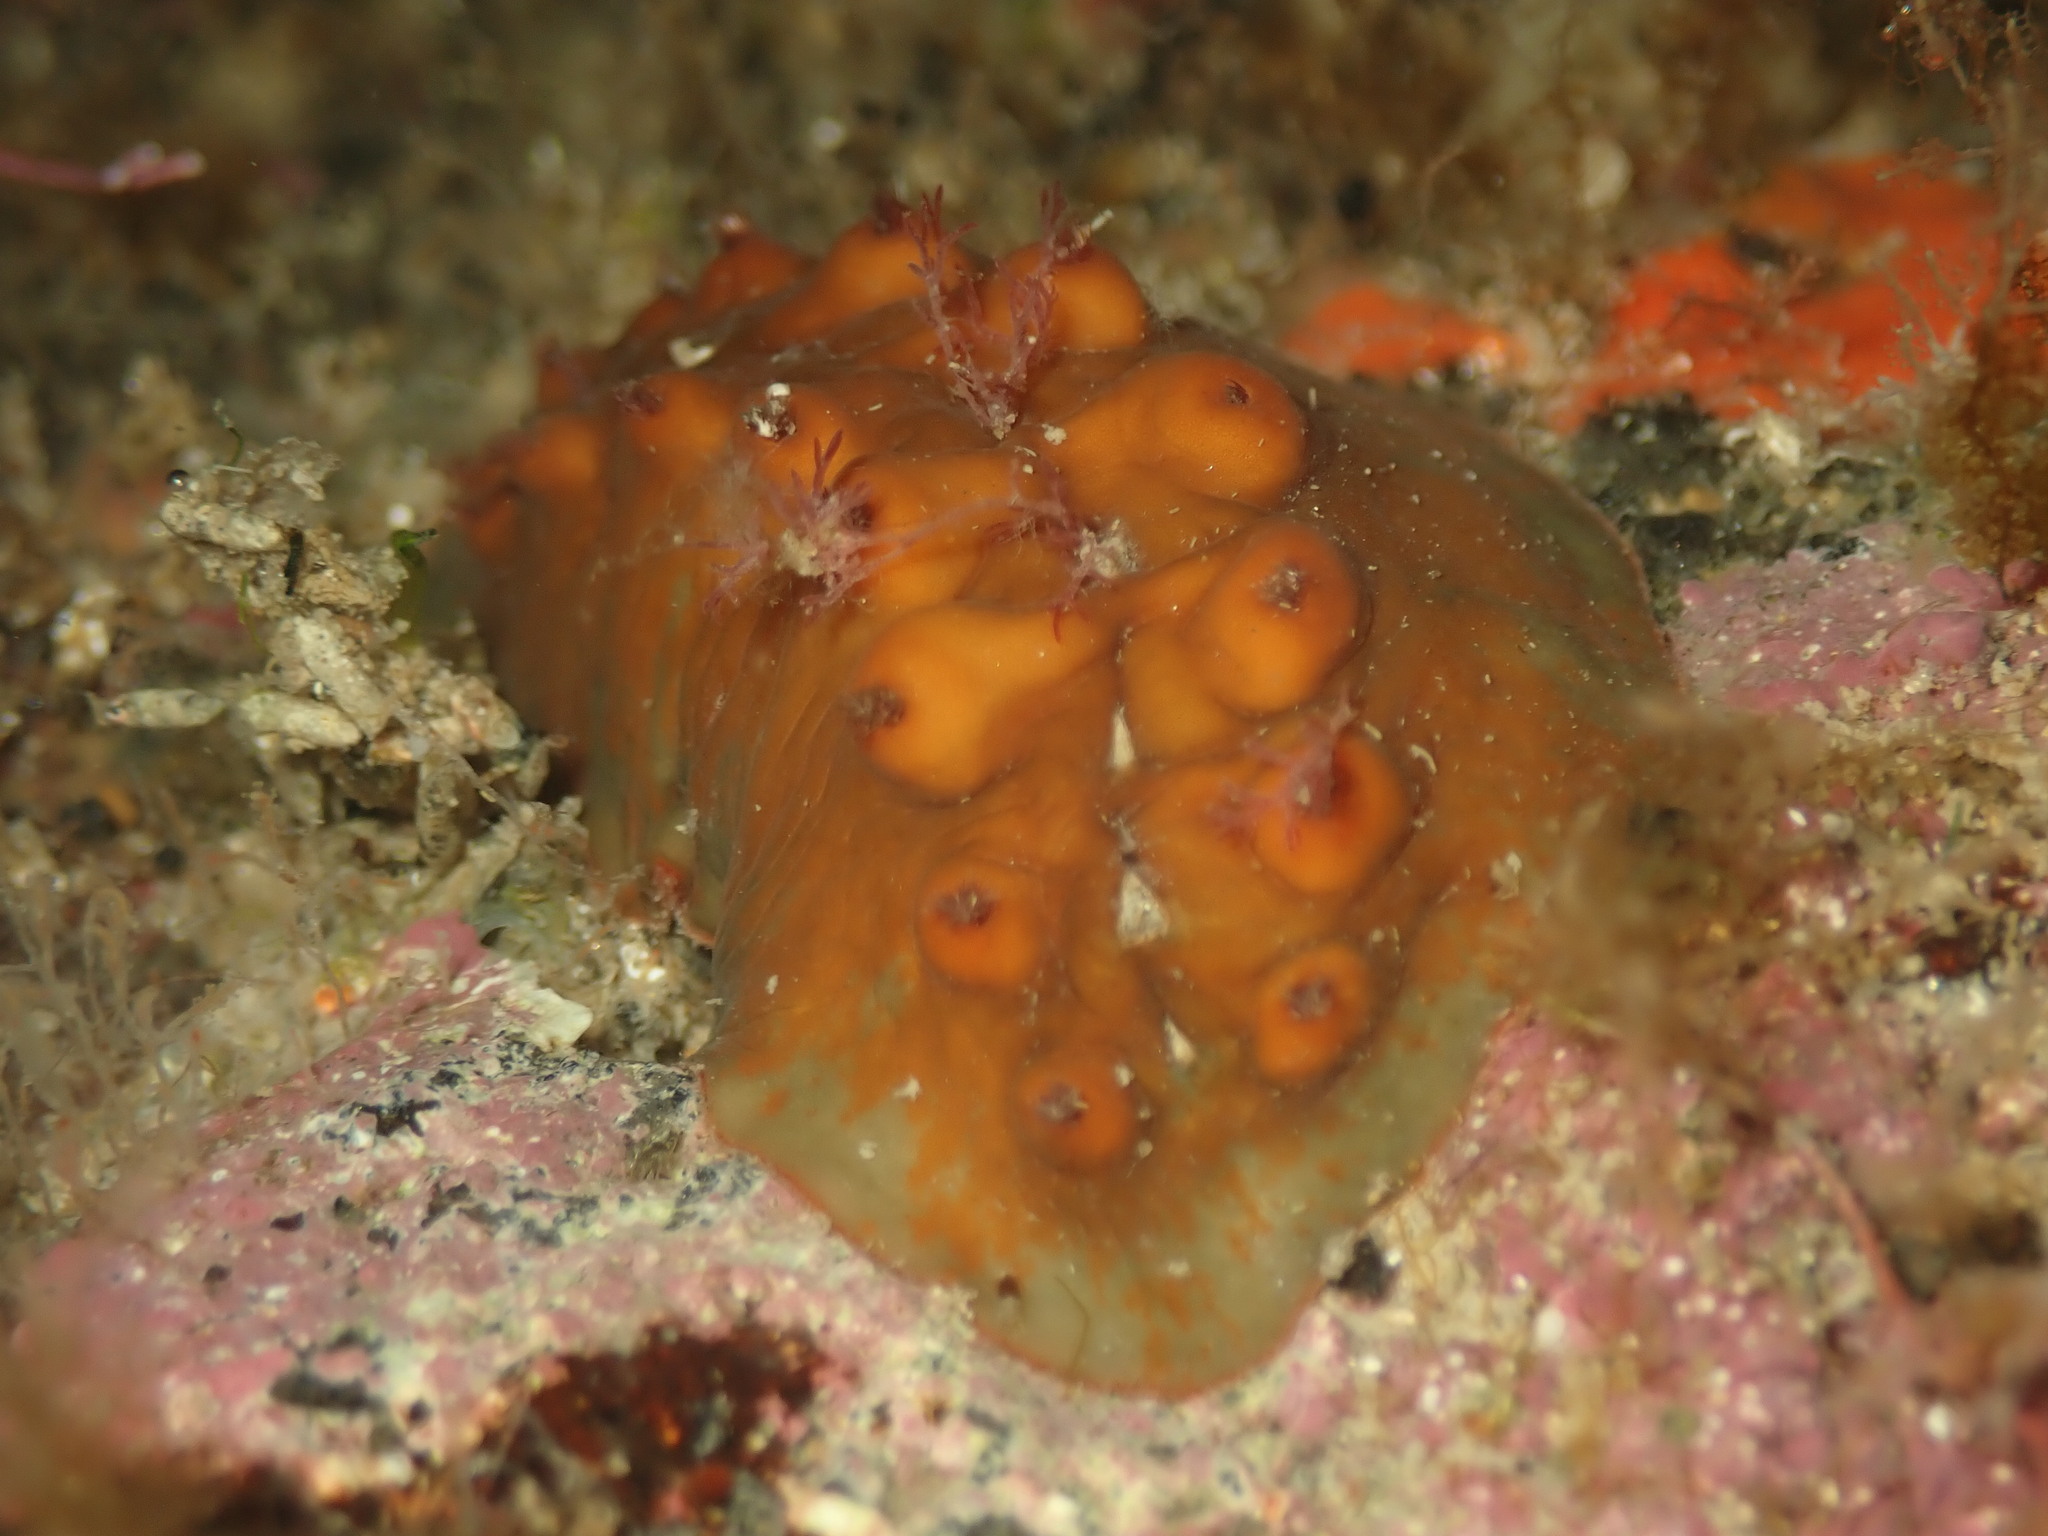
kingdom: Animalia
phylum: Mollusca
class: Polyplacophora
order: Chitonida
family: Acanthochitonidae
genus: Cryptoconchus
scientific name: Cryptoconchus porosus
